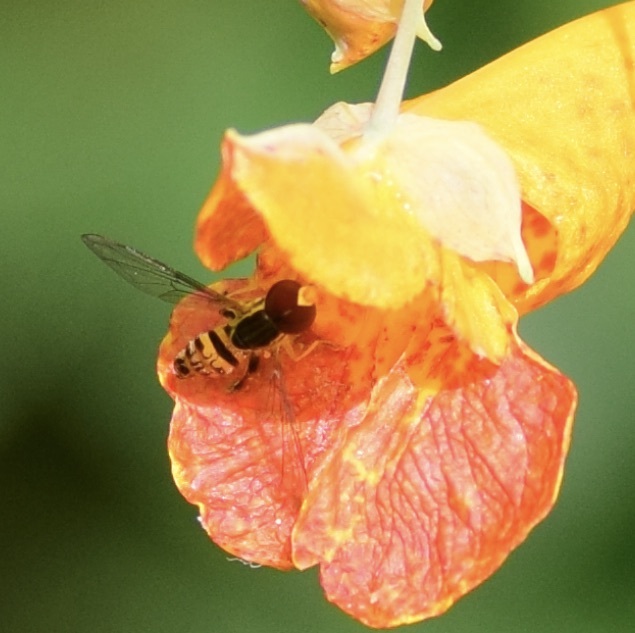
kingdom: Animalia
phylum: Arthropoda
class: Insecta
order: Diptera
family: Syrphidae
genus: Toxomerus
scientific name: Toxomerus geminatus
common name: Eastern calligrapher
